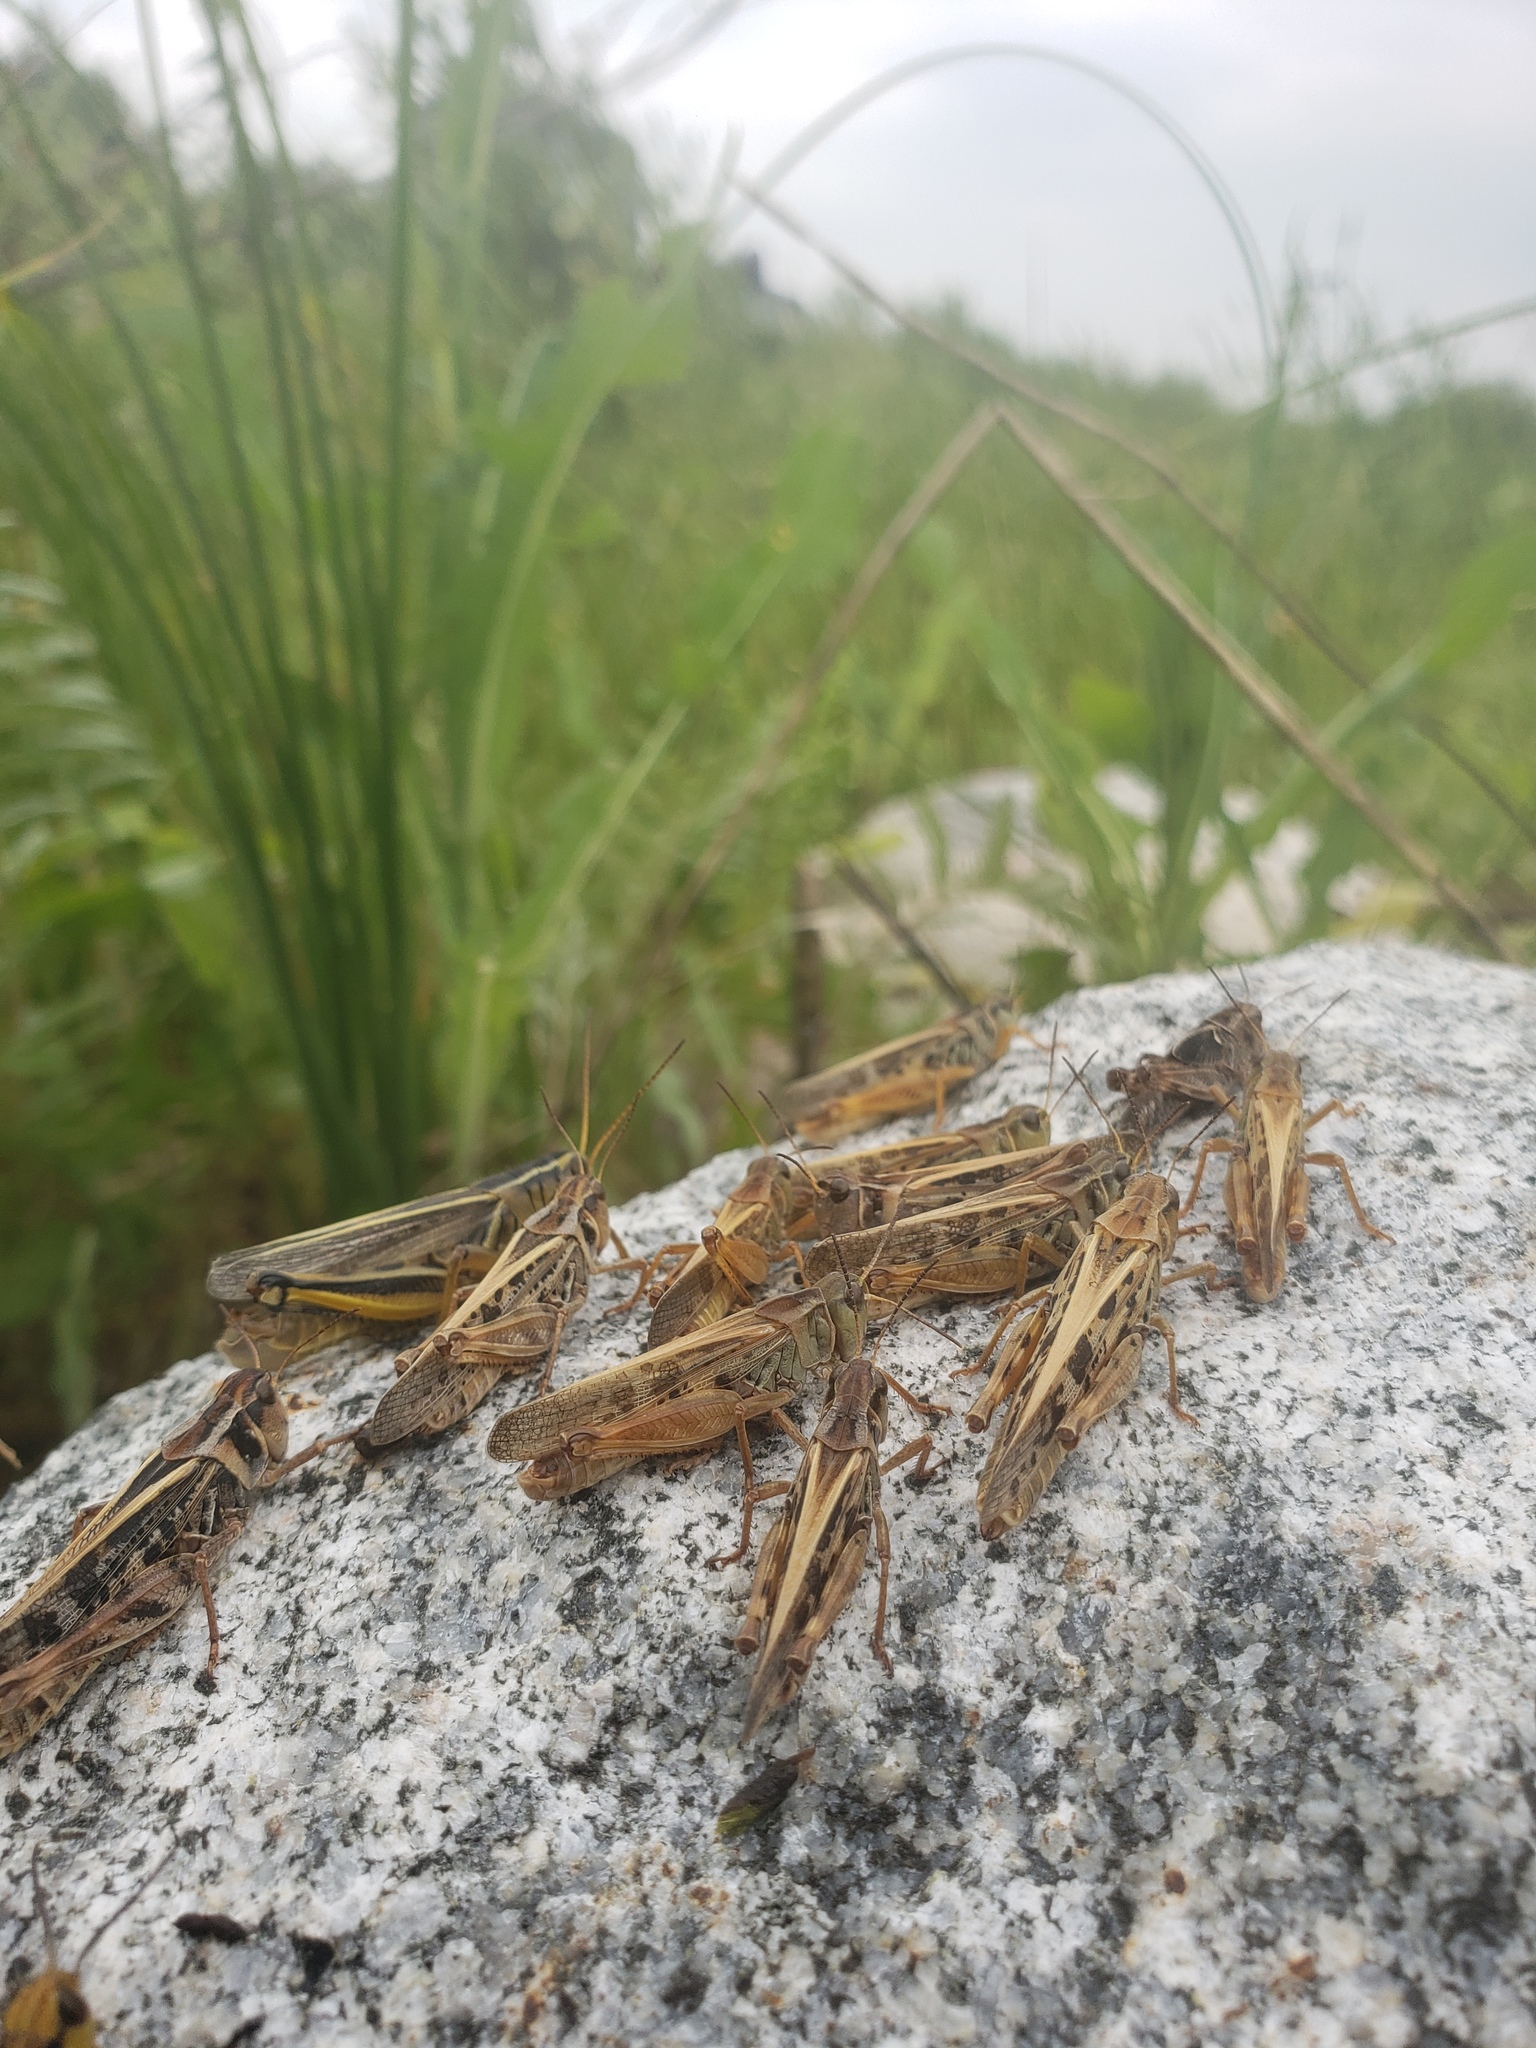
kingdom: Animalia
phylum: Arthropoda
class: Insecta
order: Orthoptera
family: Acrididae
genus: Melanoplus
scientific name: Melanoplus bivittatus
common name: Two-striped grasshopper
